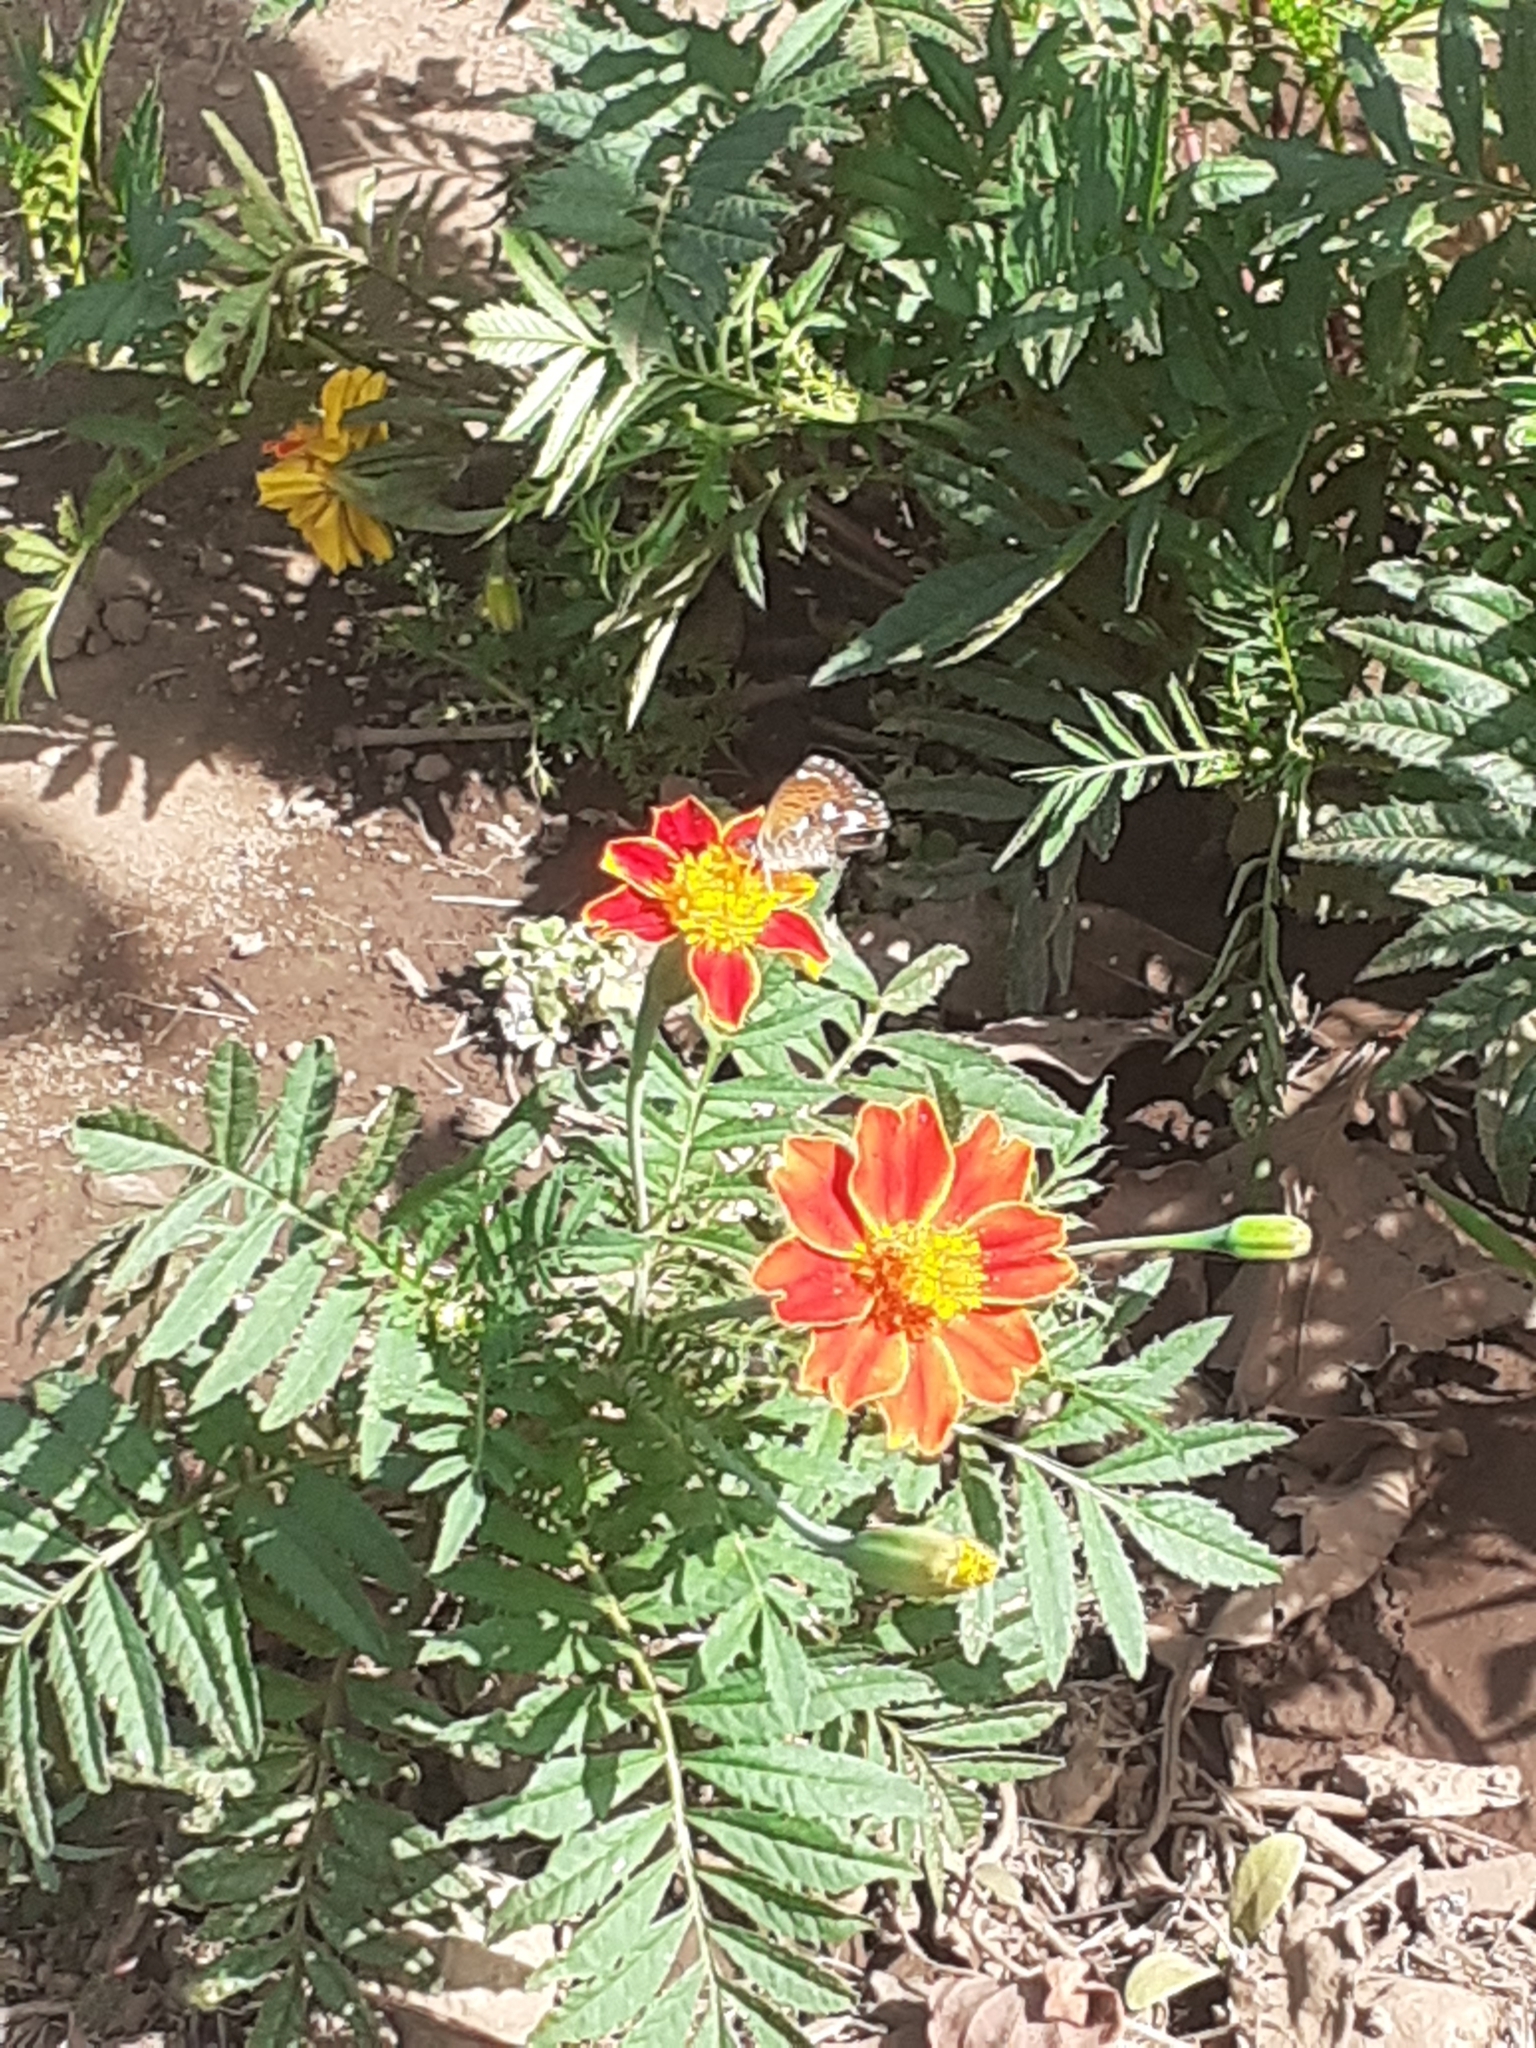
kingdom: Animalia
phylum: Arthropoda
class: Insecta
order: Lepidoptera
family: Lycaenidae
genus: Cyclyrius
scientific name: Cyclyrius webbianus
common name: Canary blue
